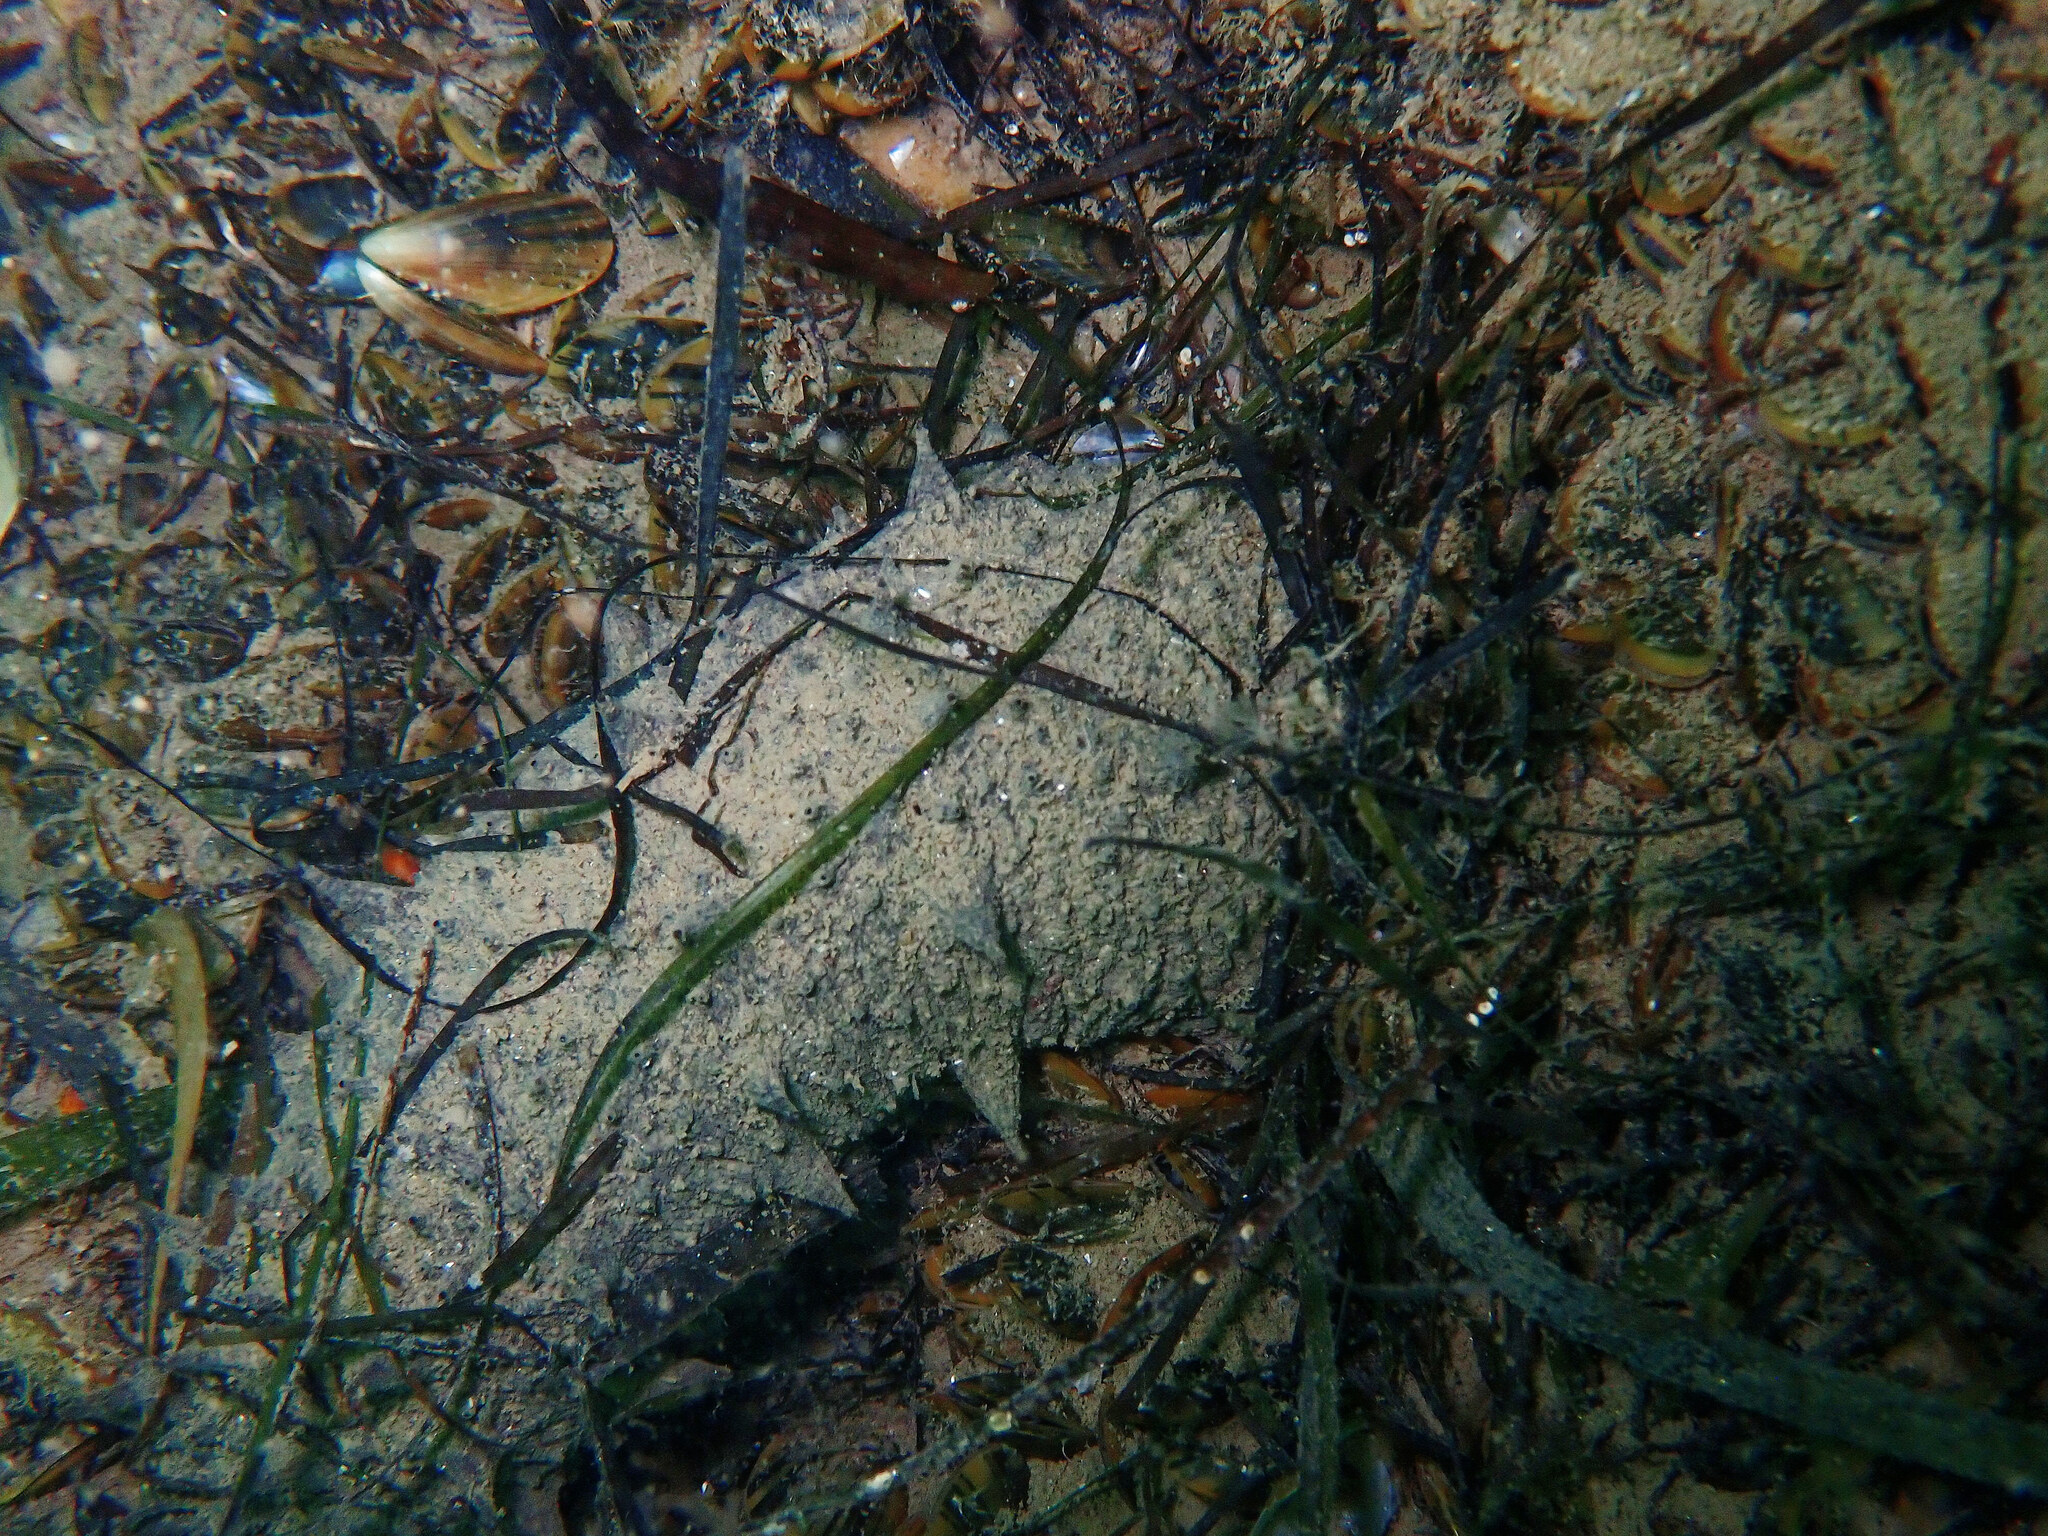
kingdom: Animalia
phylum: Echinodermata
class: Holothuroidea
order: Holothuriida
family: Holothuriidae
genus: Holothuria
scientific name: Holothuria mammata
